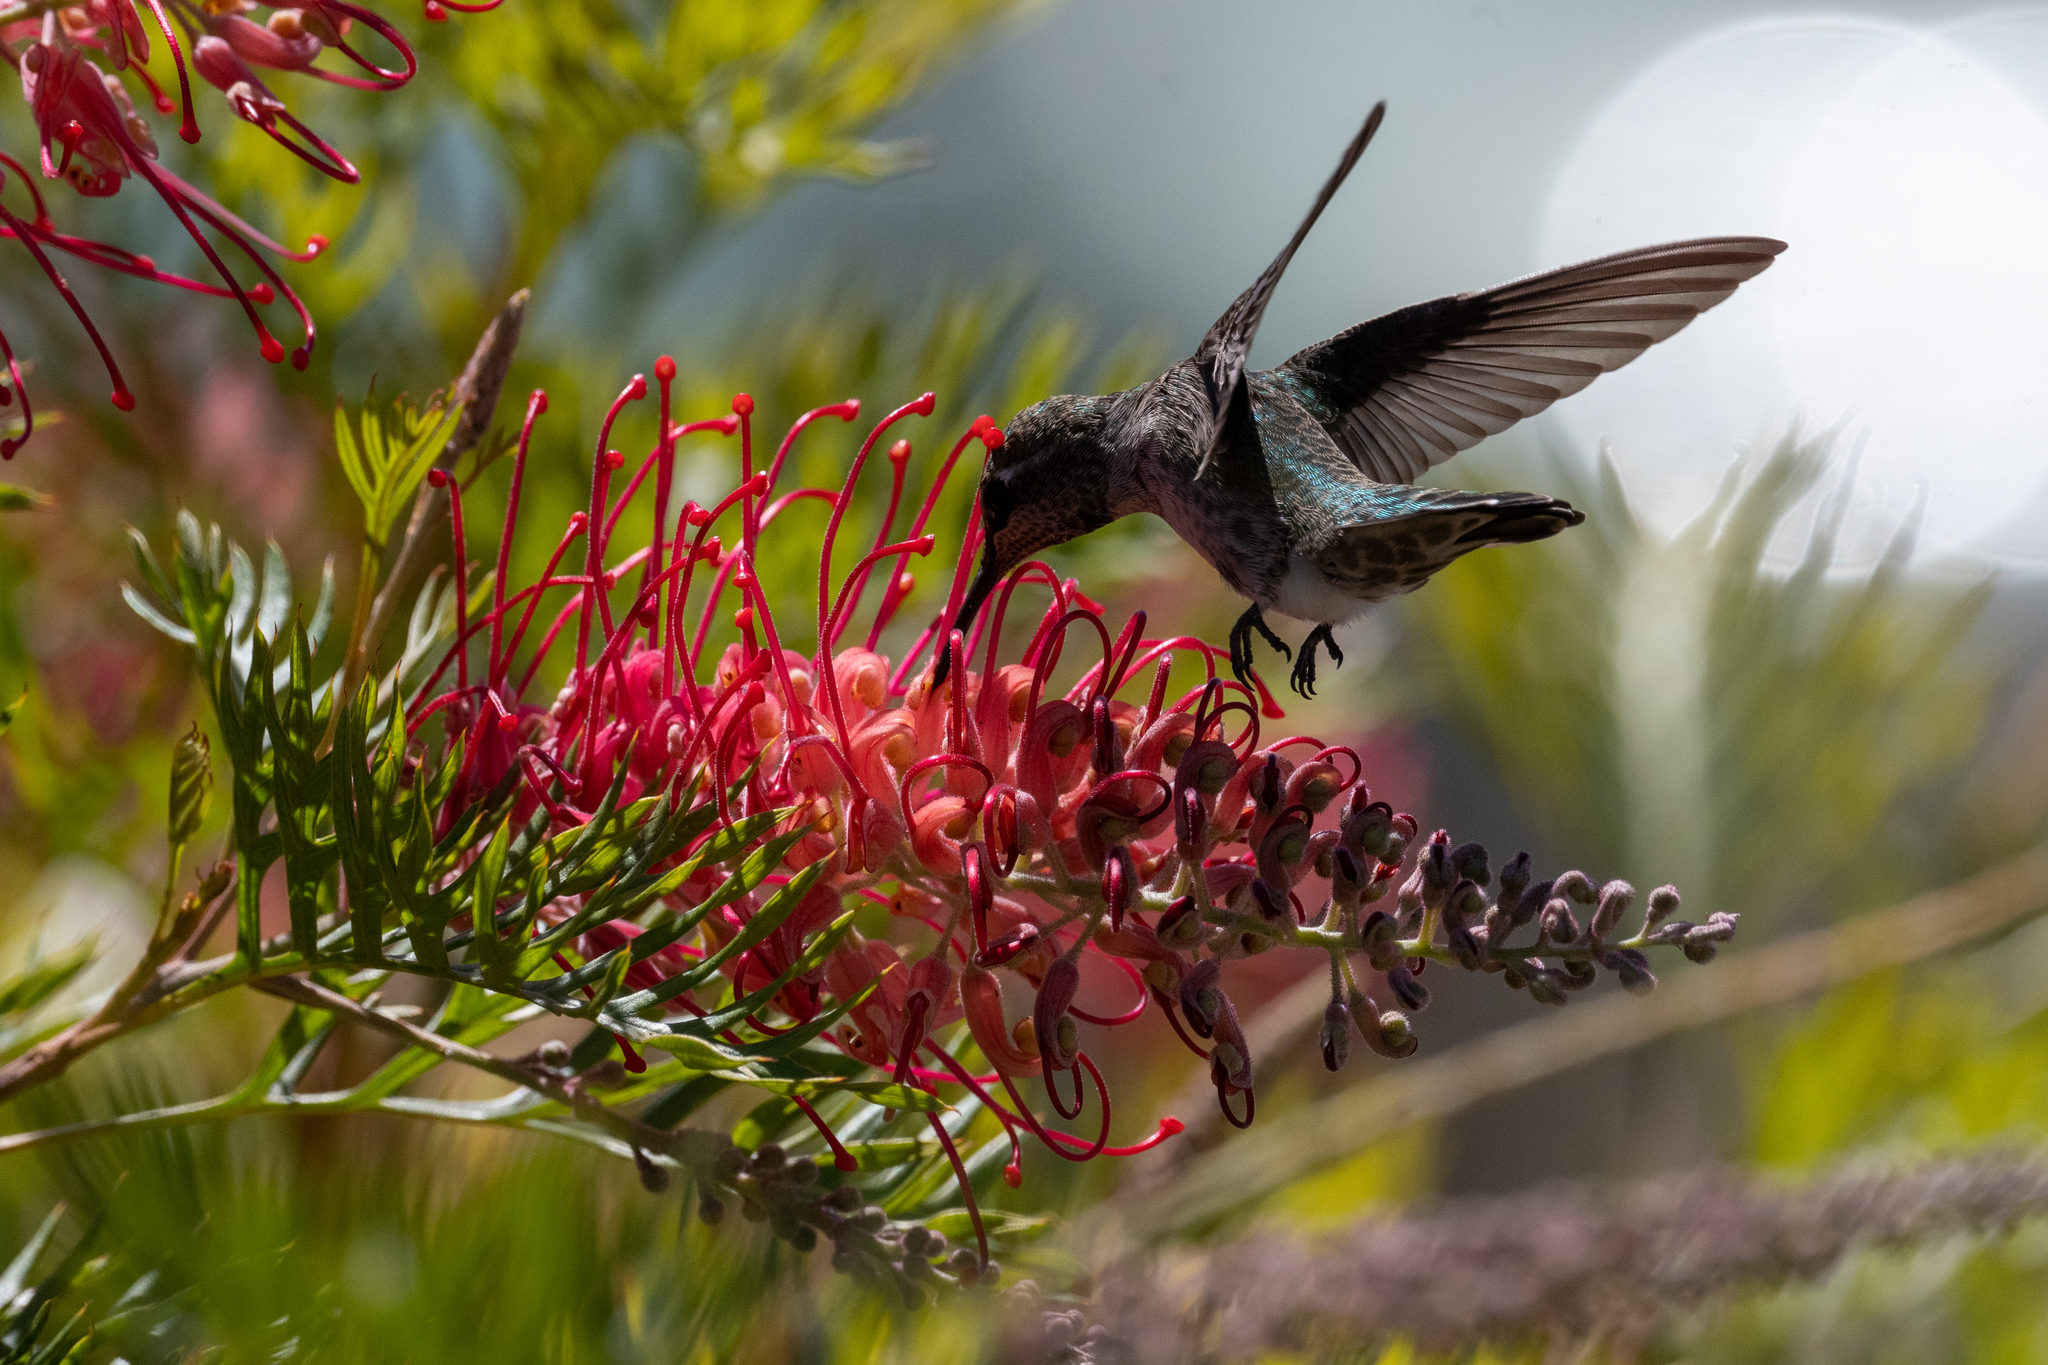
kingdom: Animalia
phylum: Chordata
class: Aves
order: Apodiformes
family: Trochilidae
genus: Calypte
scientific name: Calypte anna
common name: Anna's hummingbird
